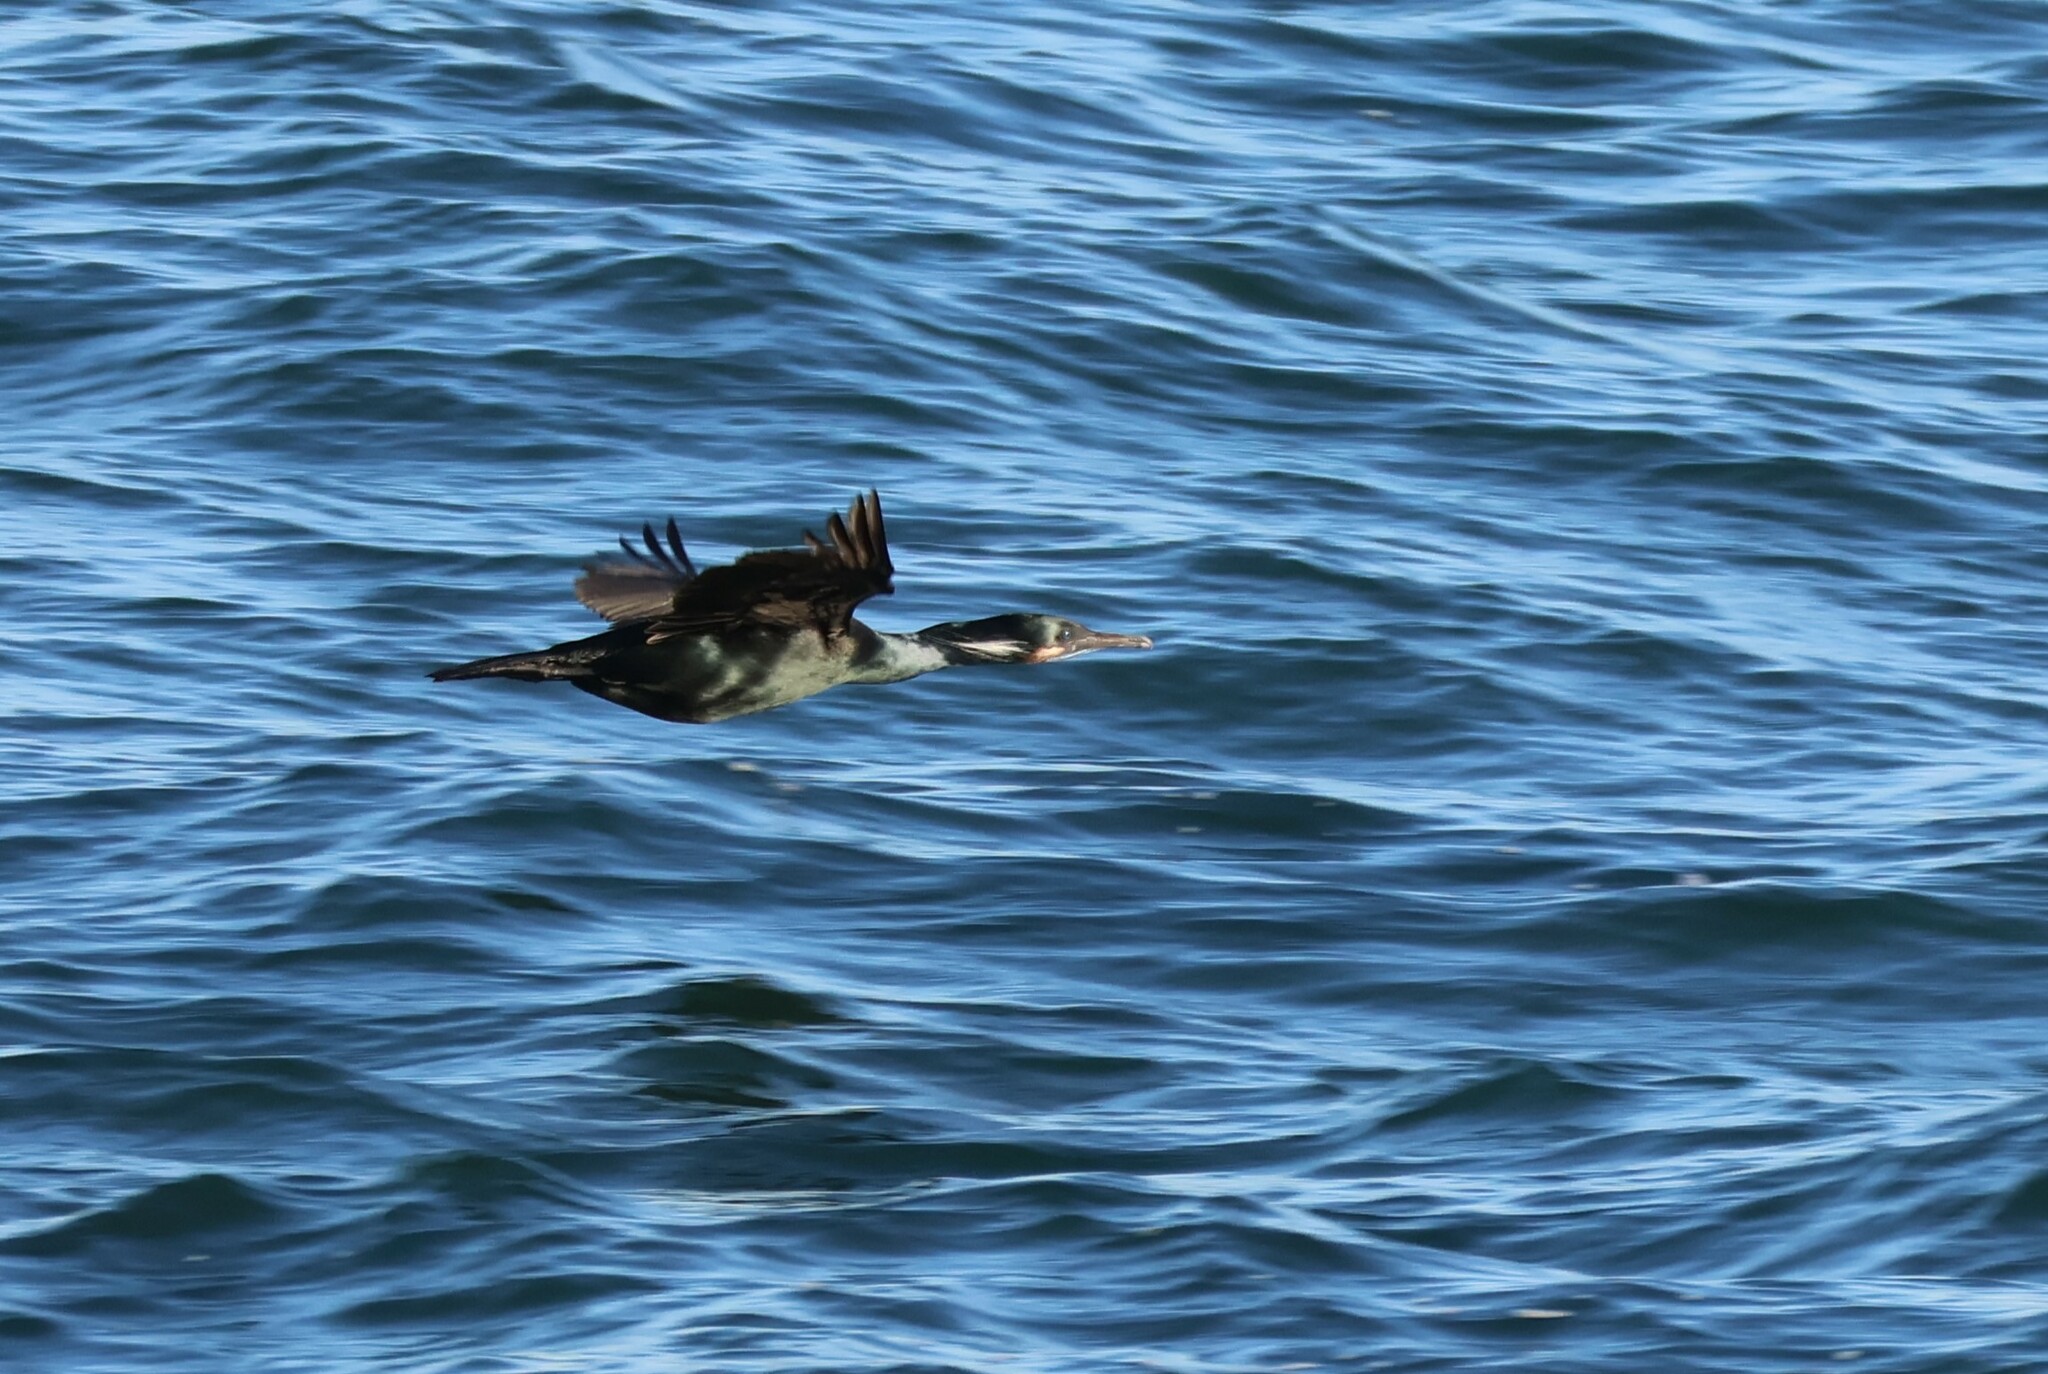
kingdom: Animalia
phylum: Chordata
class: Aves
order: Suliformes
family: Phalacrocoracidae
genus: Urile
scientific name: Urile penicillatus
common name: Brandt's cormorant
